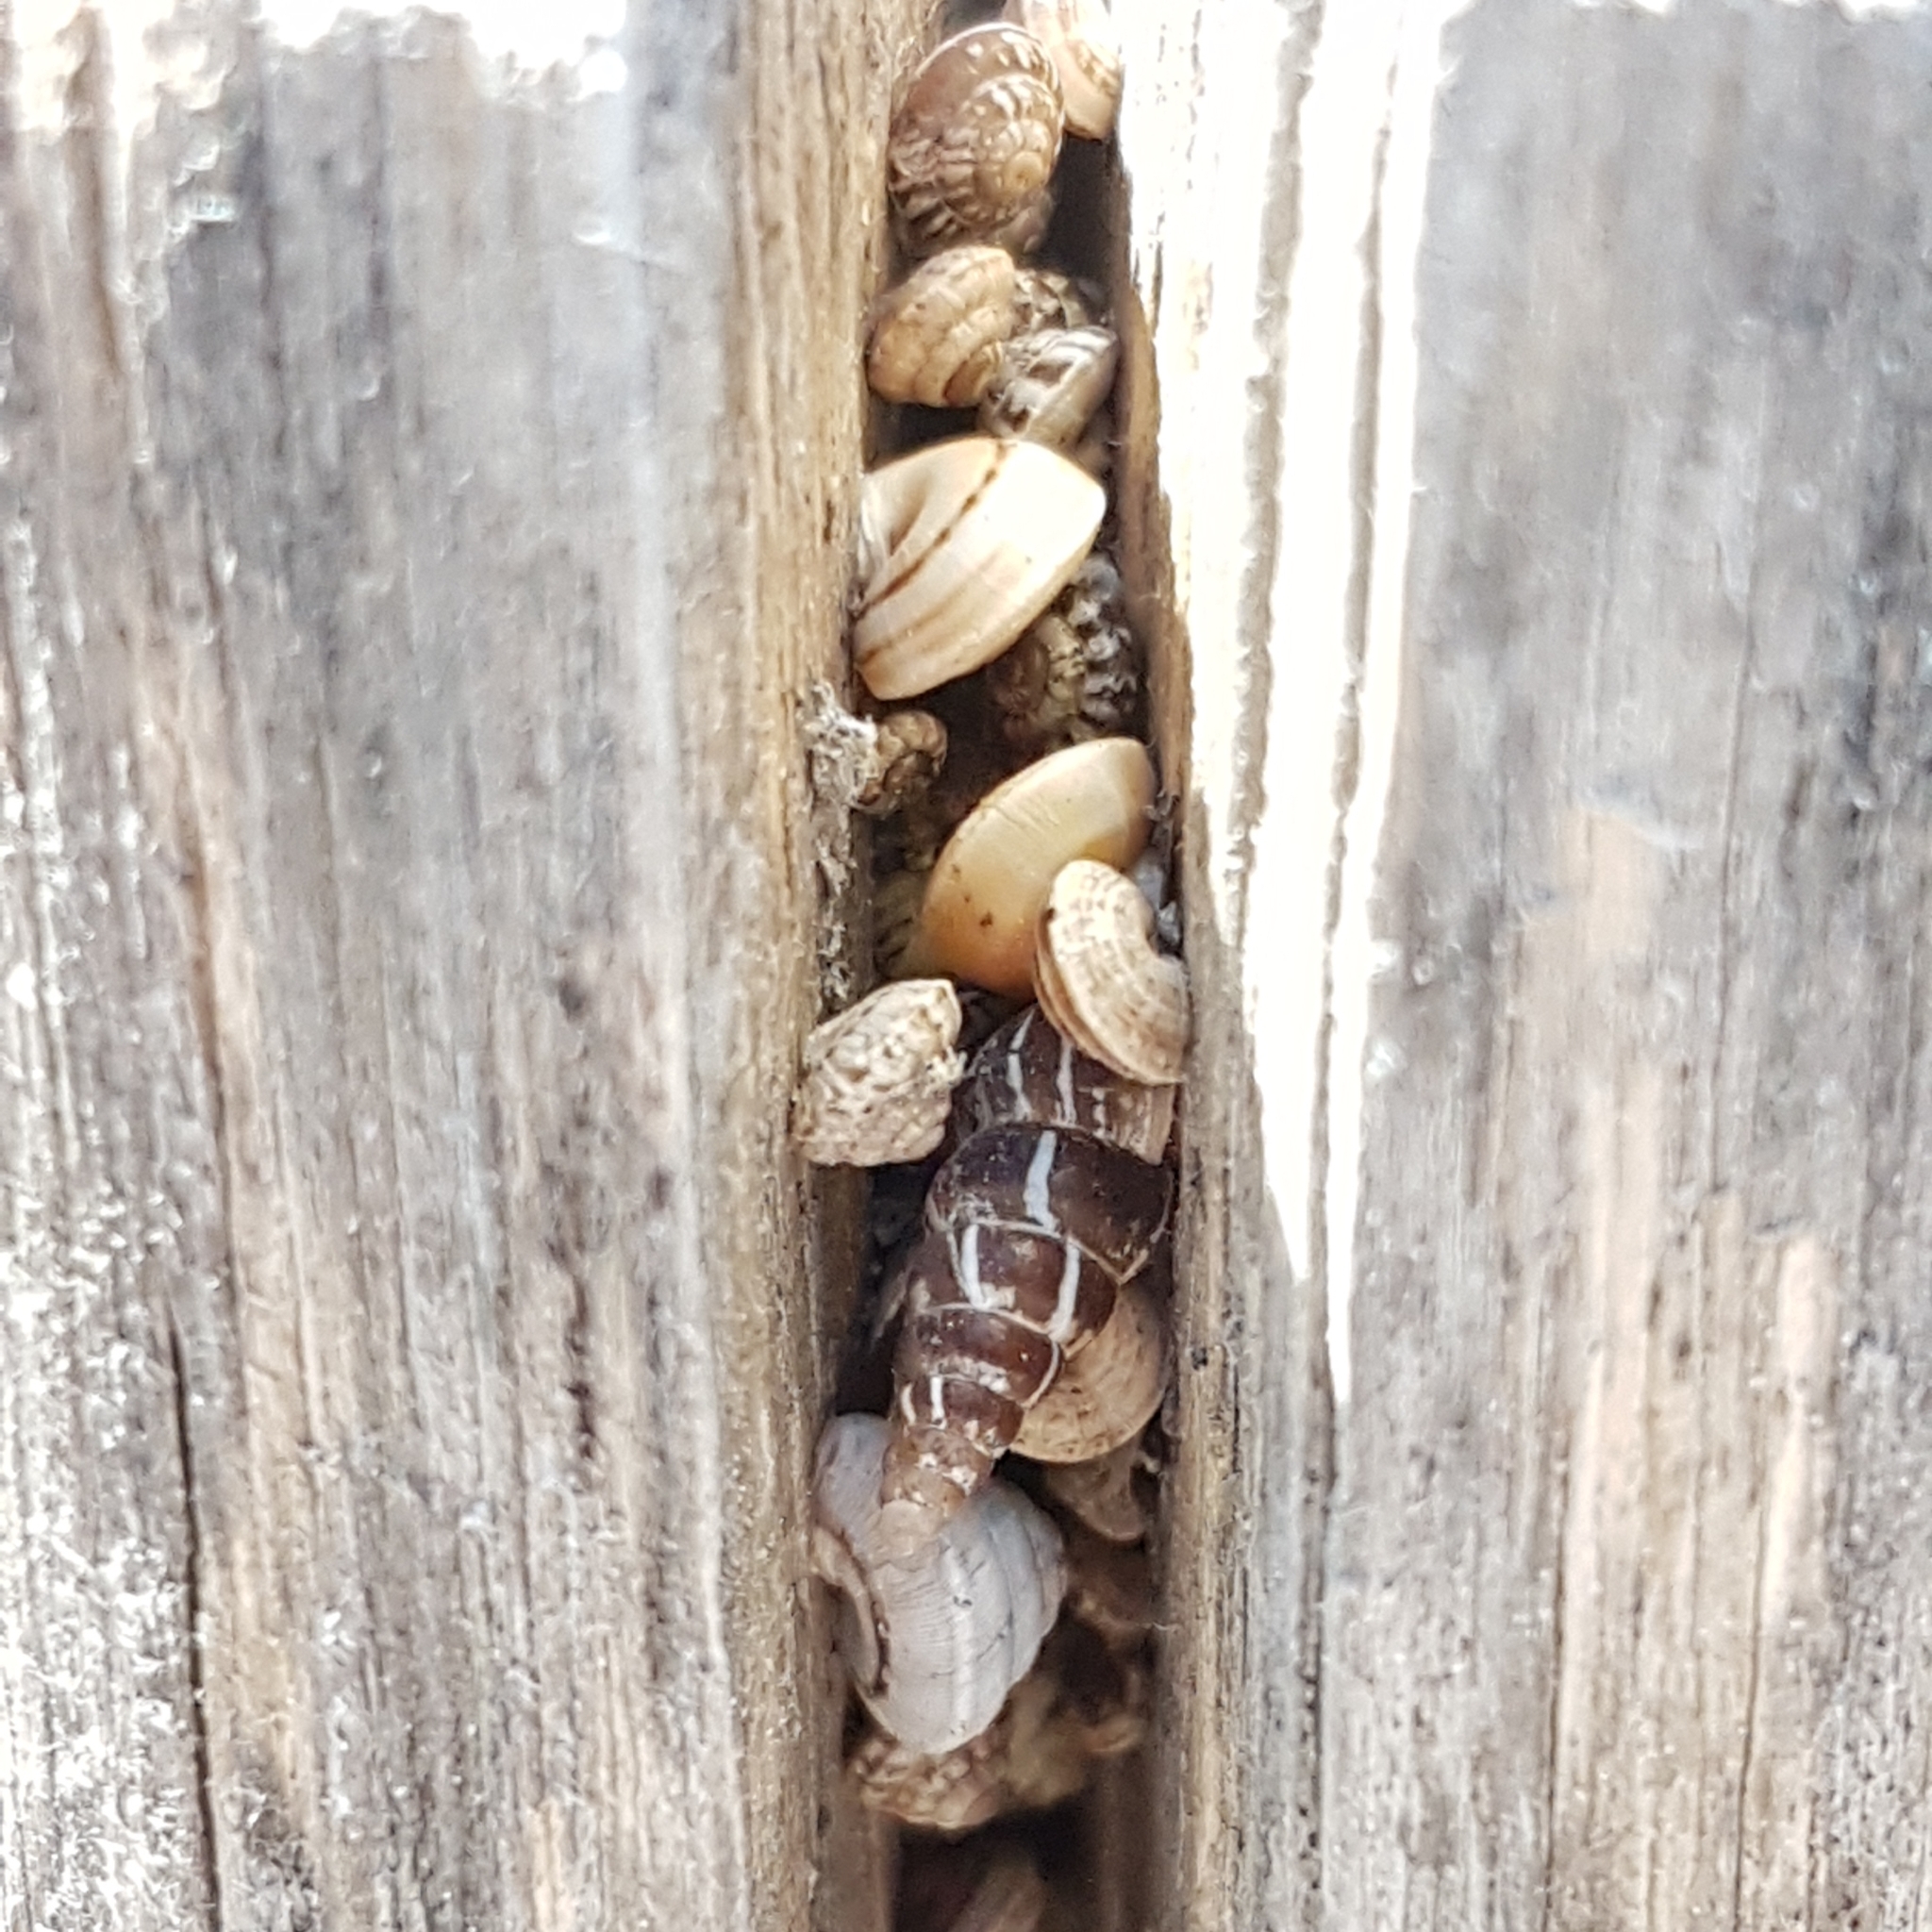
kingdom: Animalia
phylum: Mollusca
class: Gastropoda
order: Stylommatophora
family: Helicidae
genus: Theba
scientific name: Theba pisana
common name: White snail
